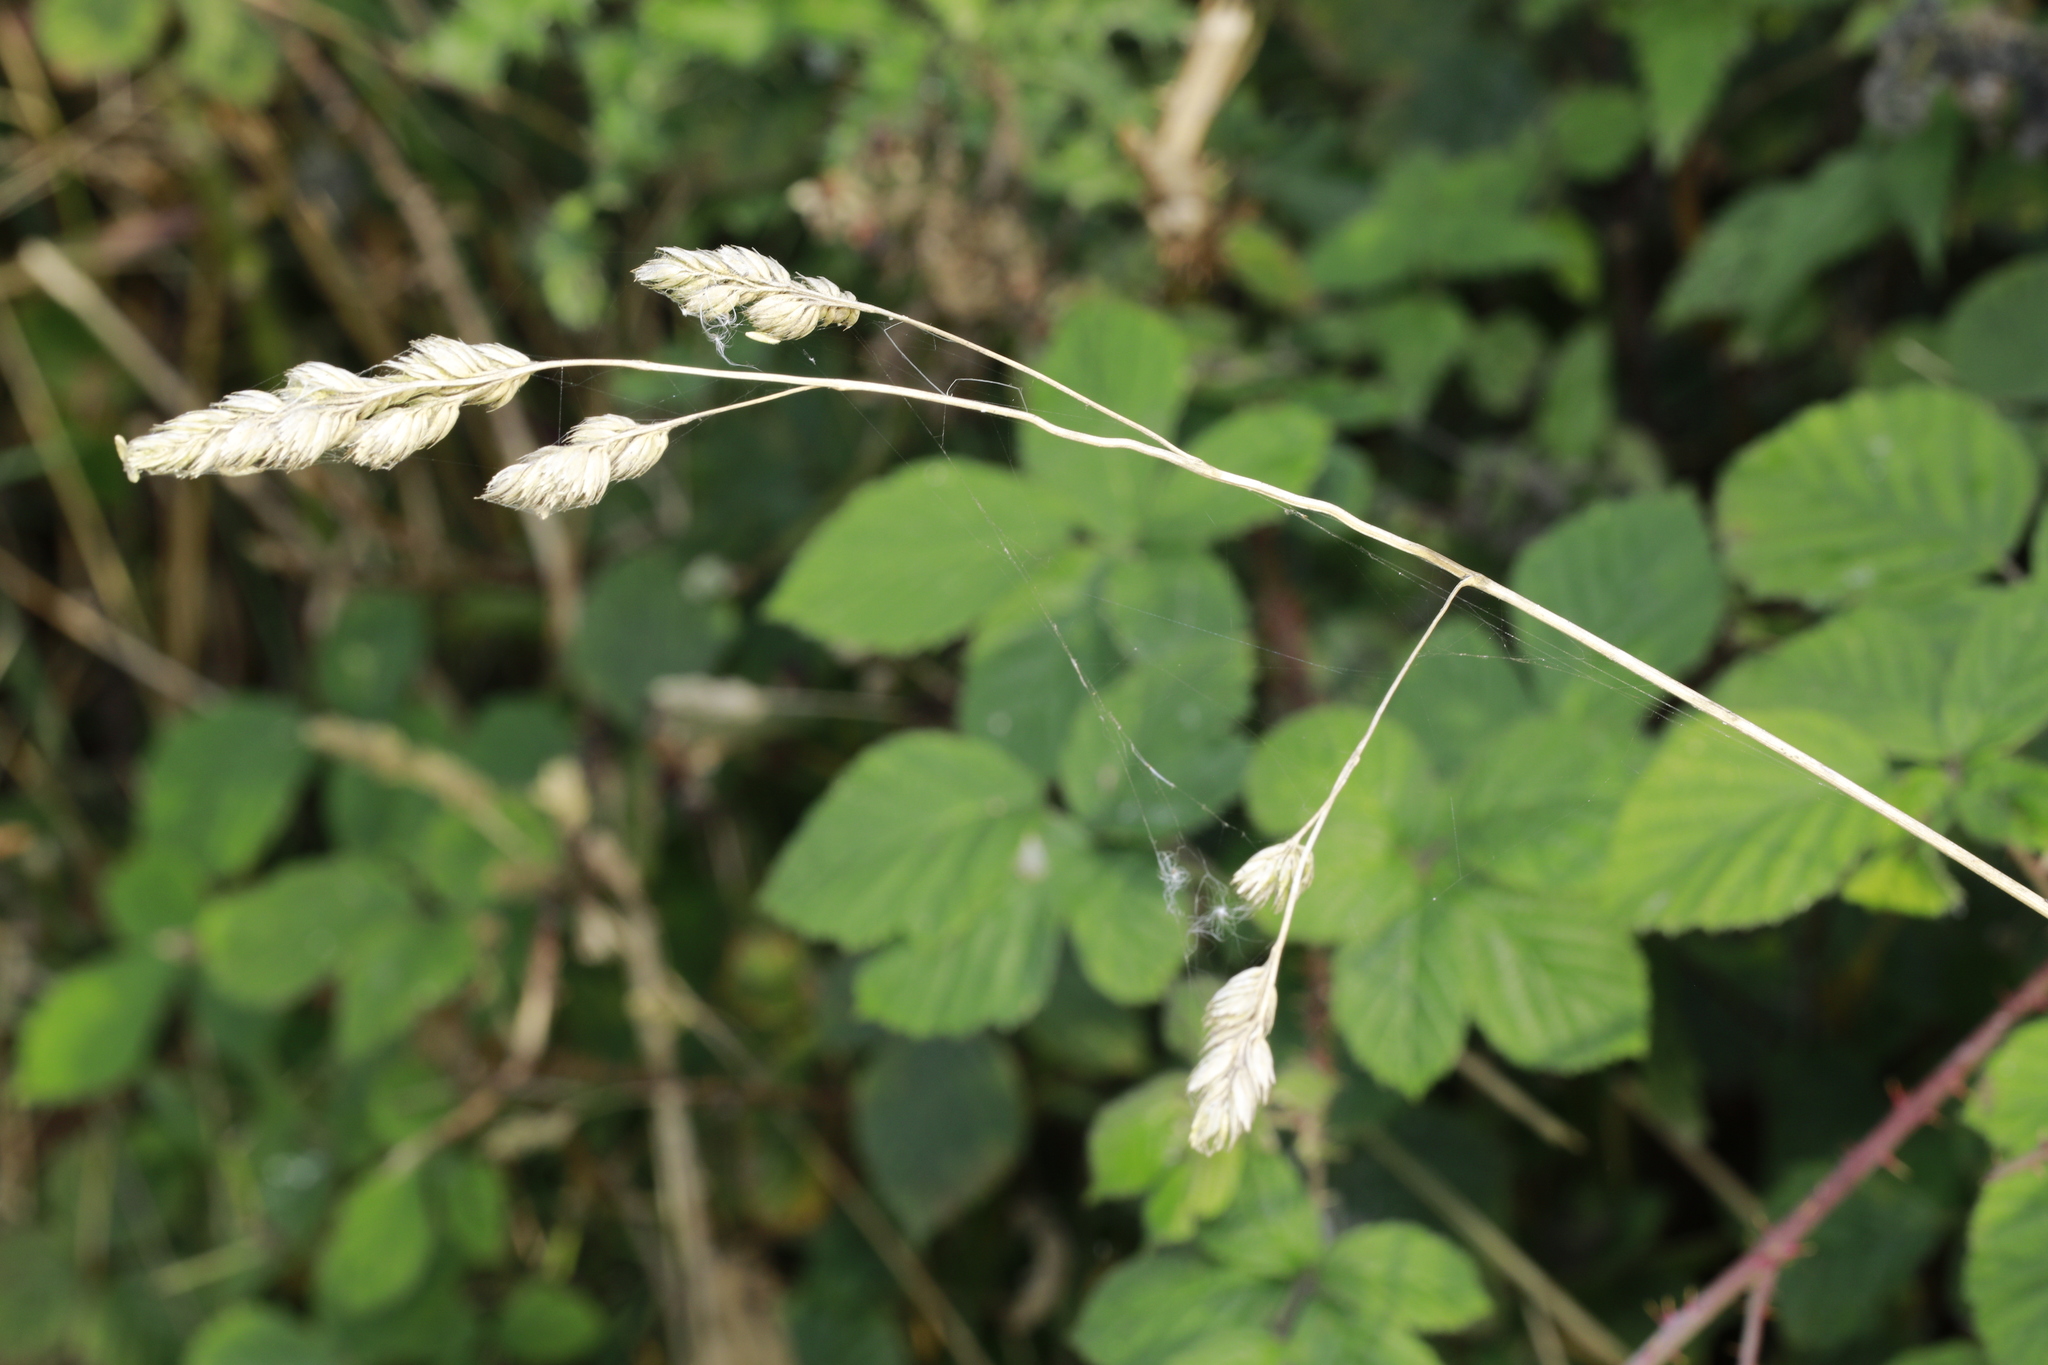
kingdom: Plantae
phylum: Tracheophyta
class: Liliopsida
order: Poales
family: Poaceae
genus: Dactylis
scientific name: Dactylis glomerata
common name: Orchardgrass
